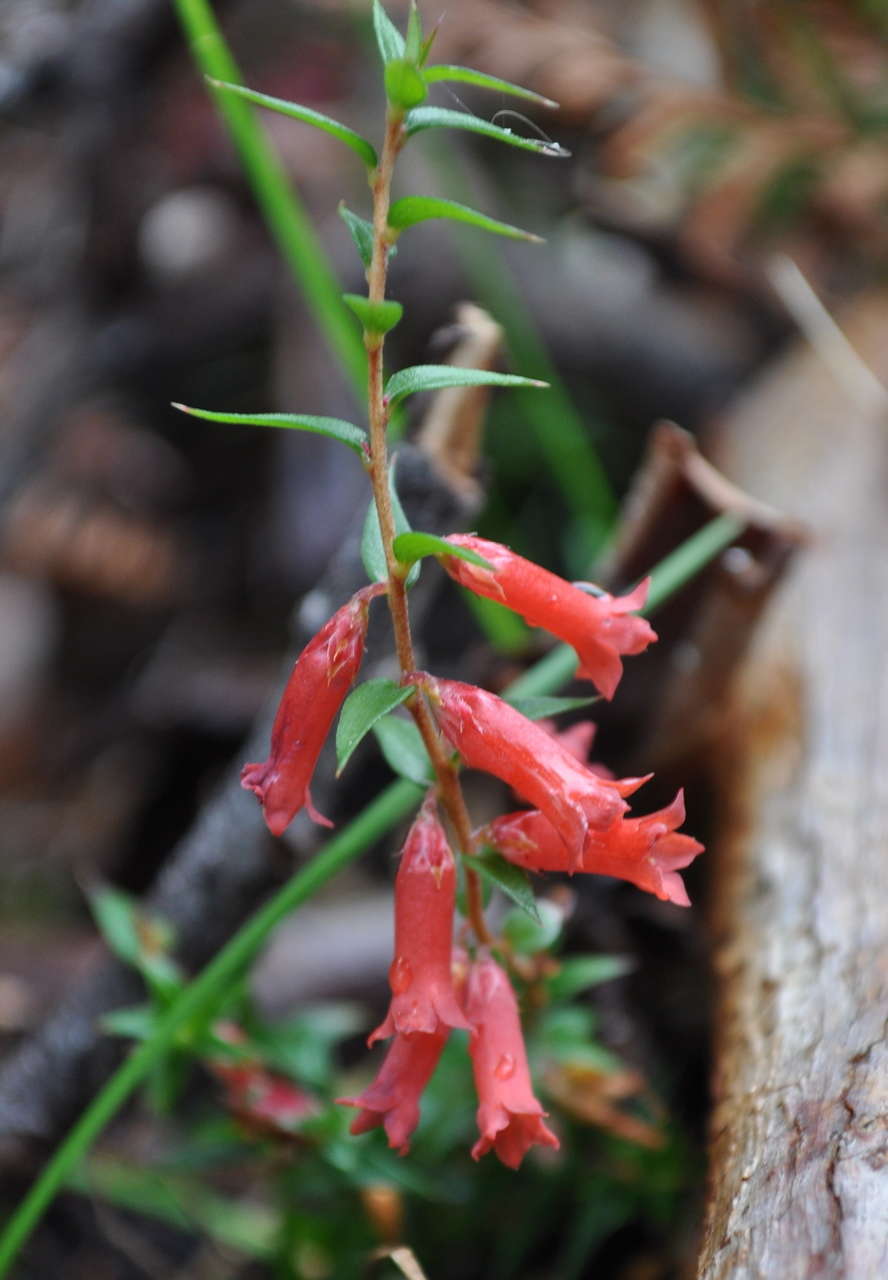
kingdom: Plantae
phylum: Tracheophyta
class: Magnoliopsida
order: Ericales
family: Ericaceae
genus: Epacris
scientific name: Epacris impressa
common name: Common-heath
